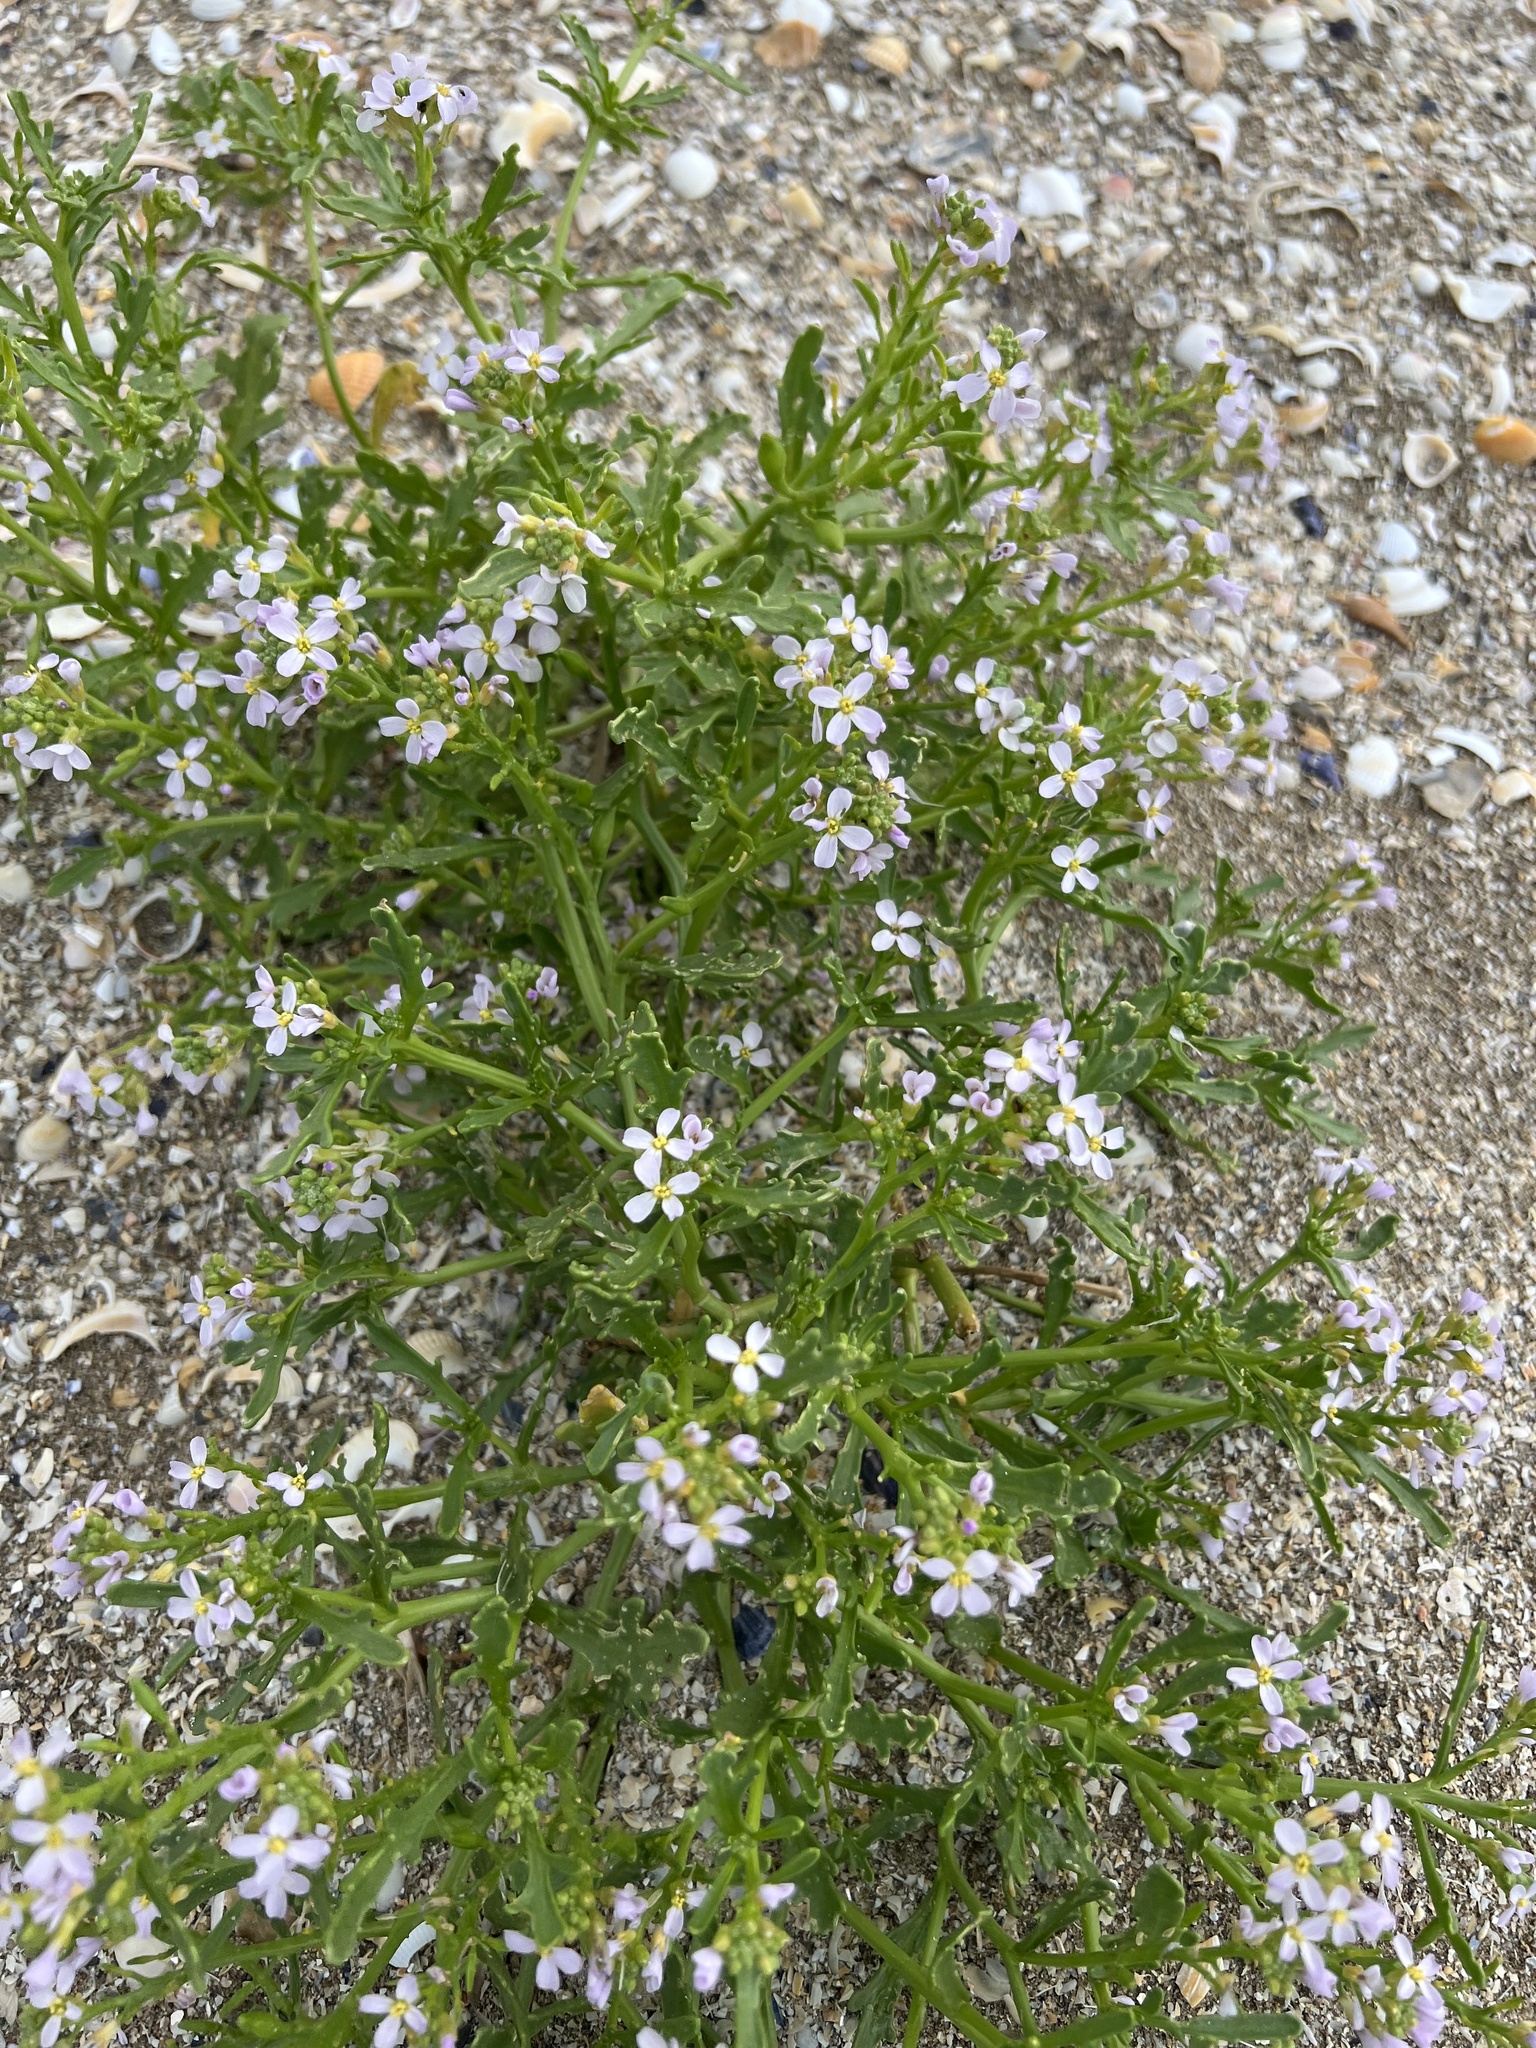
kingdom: Plantae
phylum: Tracheophyta
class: Magnoliopsida
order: Brassicales
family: Brassicaceae
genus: Cakile
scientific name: Cakile maritima
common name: Sea rocket
